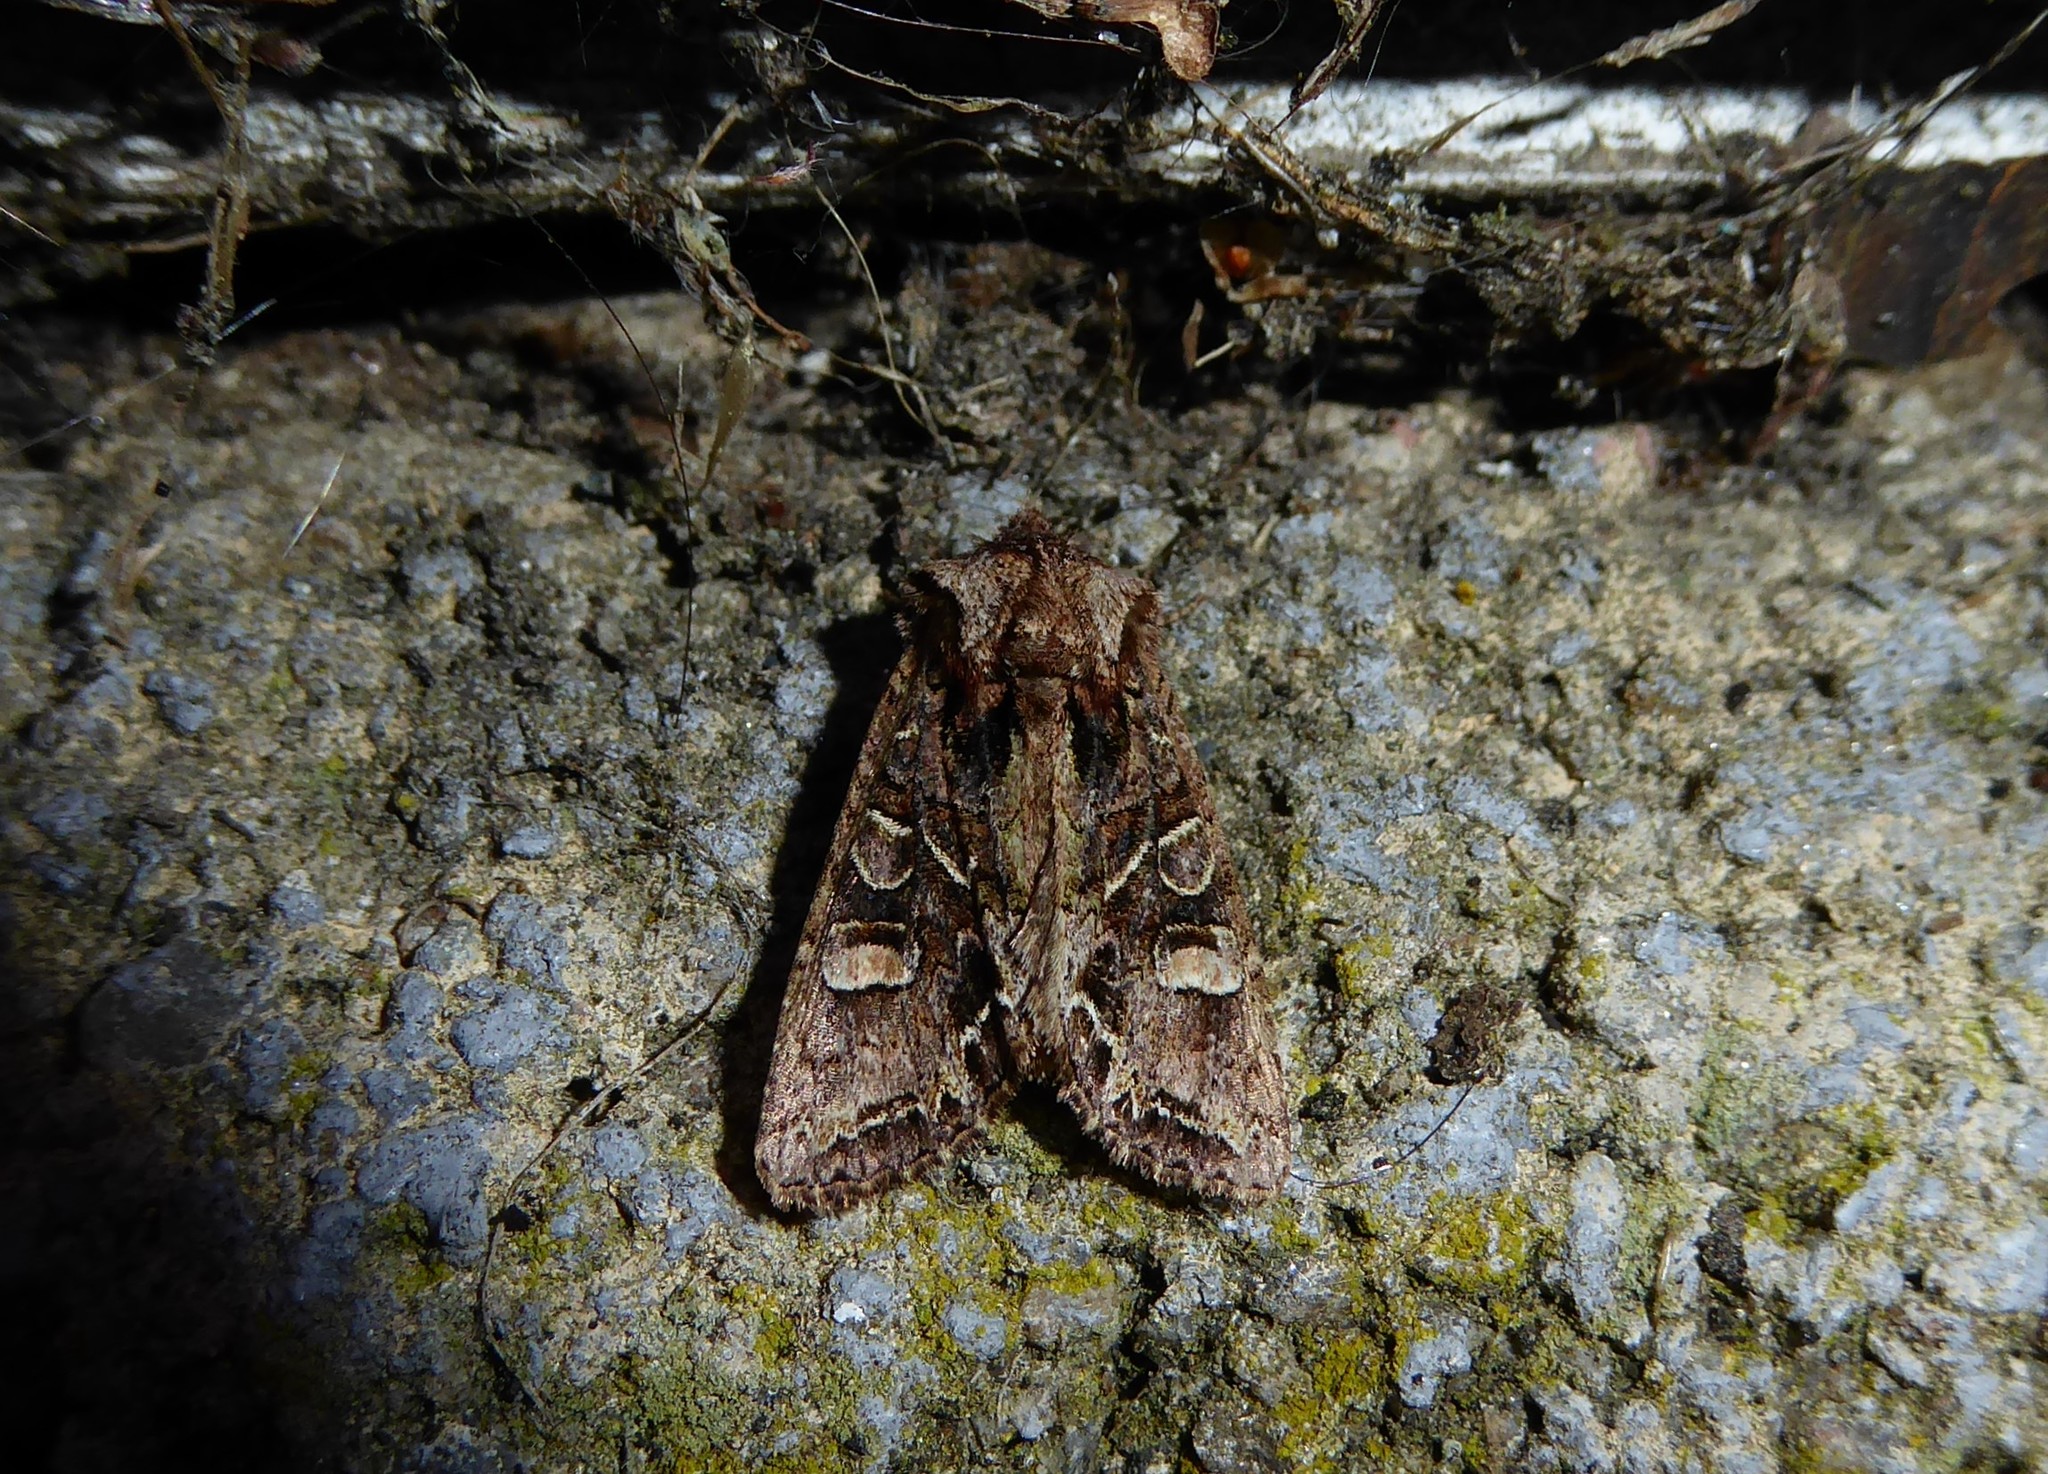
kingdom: Animalia
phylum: Arthropoda
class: Insecta
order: Lepidoptera
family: Noctuidae
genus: Ichneutica
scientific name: Ichneutica insignis
